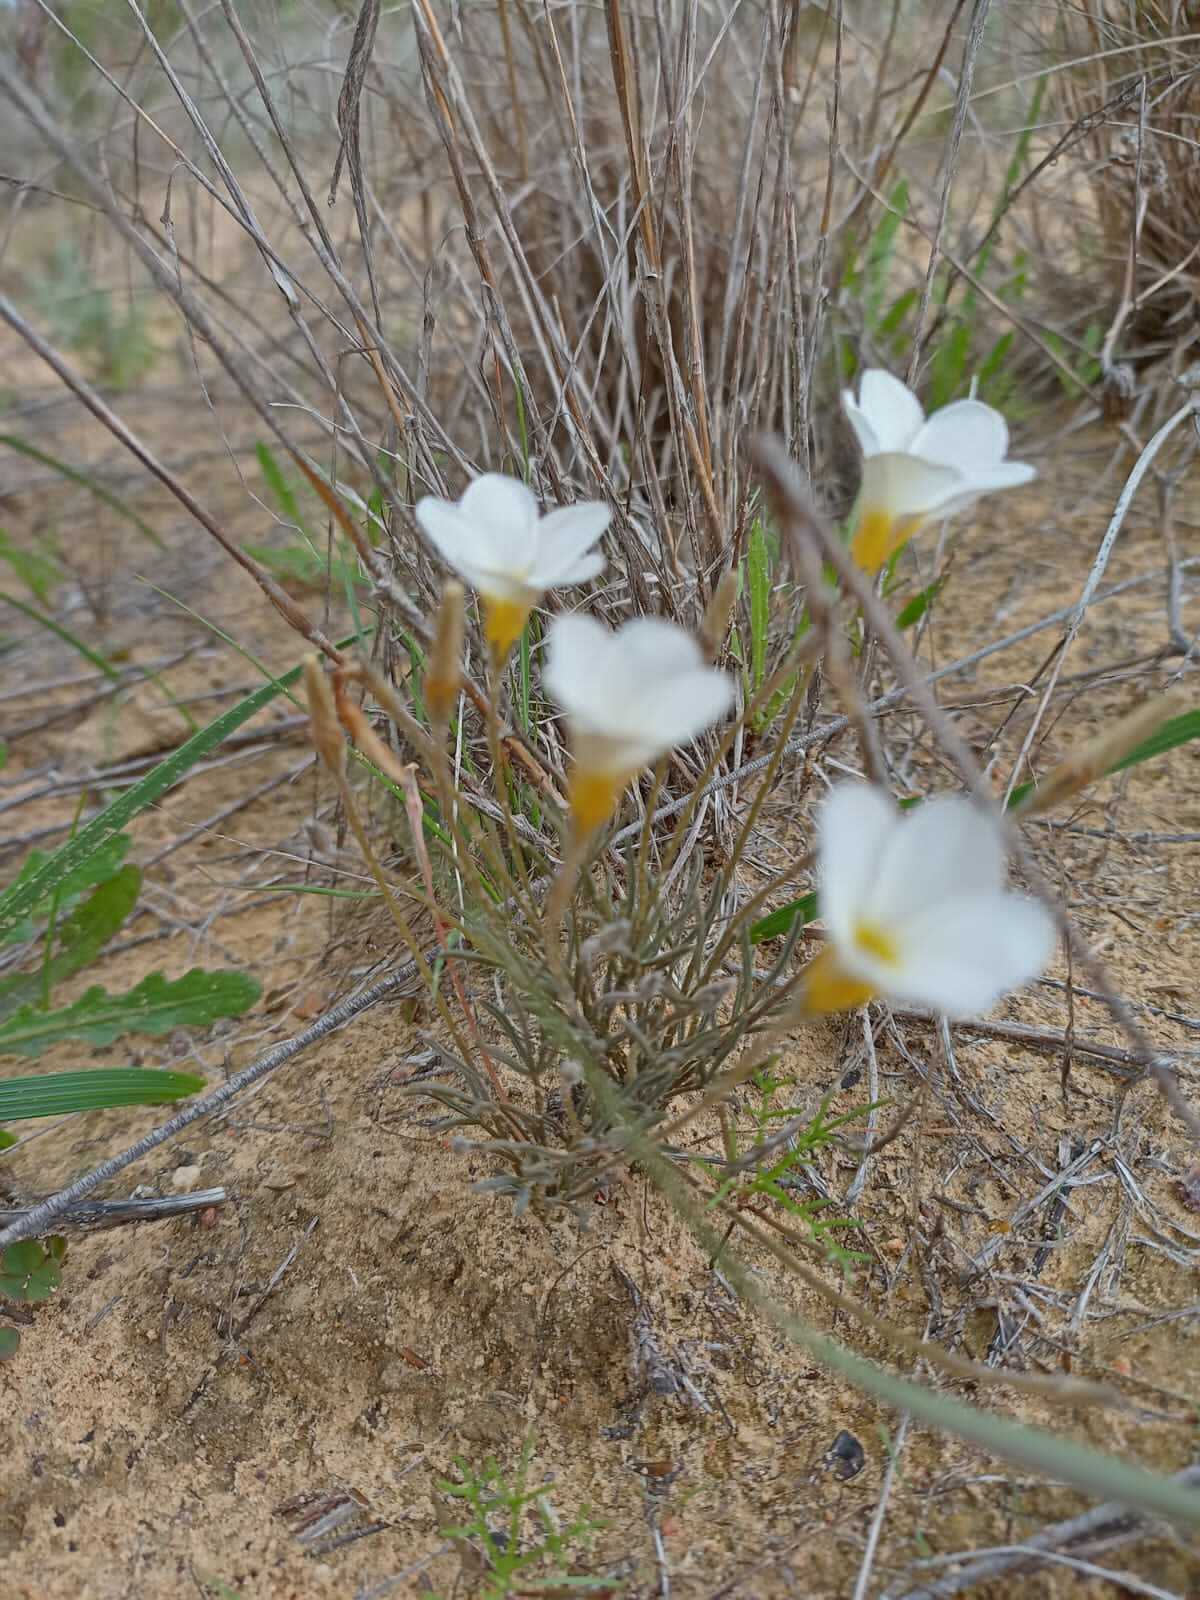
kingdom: Plantae
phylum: Tracheophyta
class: Magnoliopsida
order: Oxalidales
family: Oxalidaceae
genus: Oxalis
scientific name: Oxalis argyrophylla
